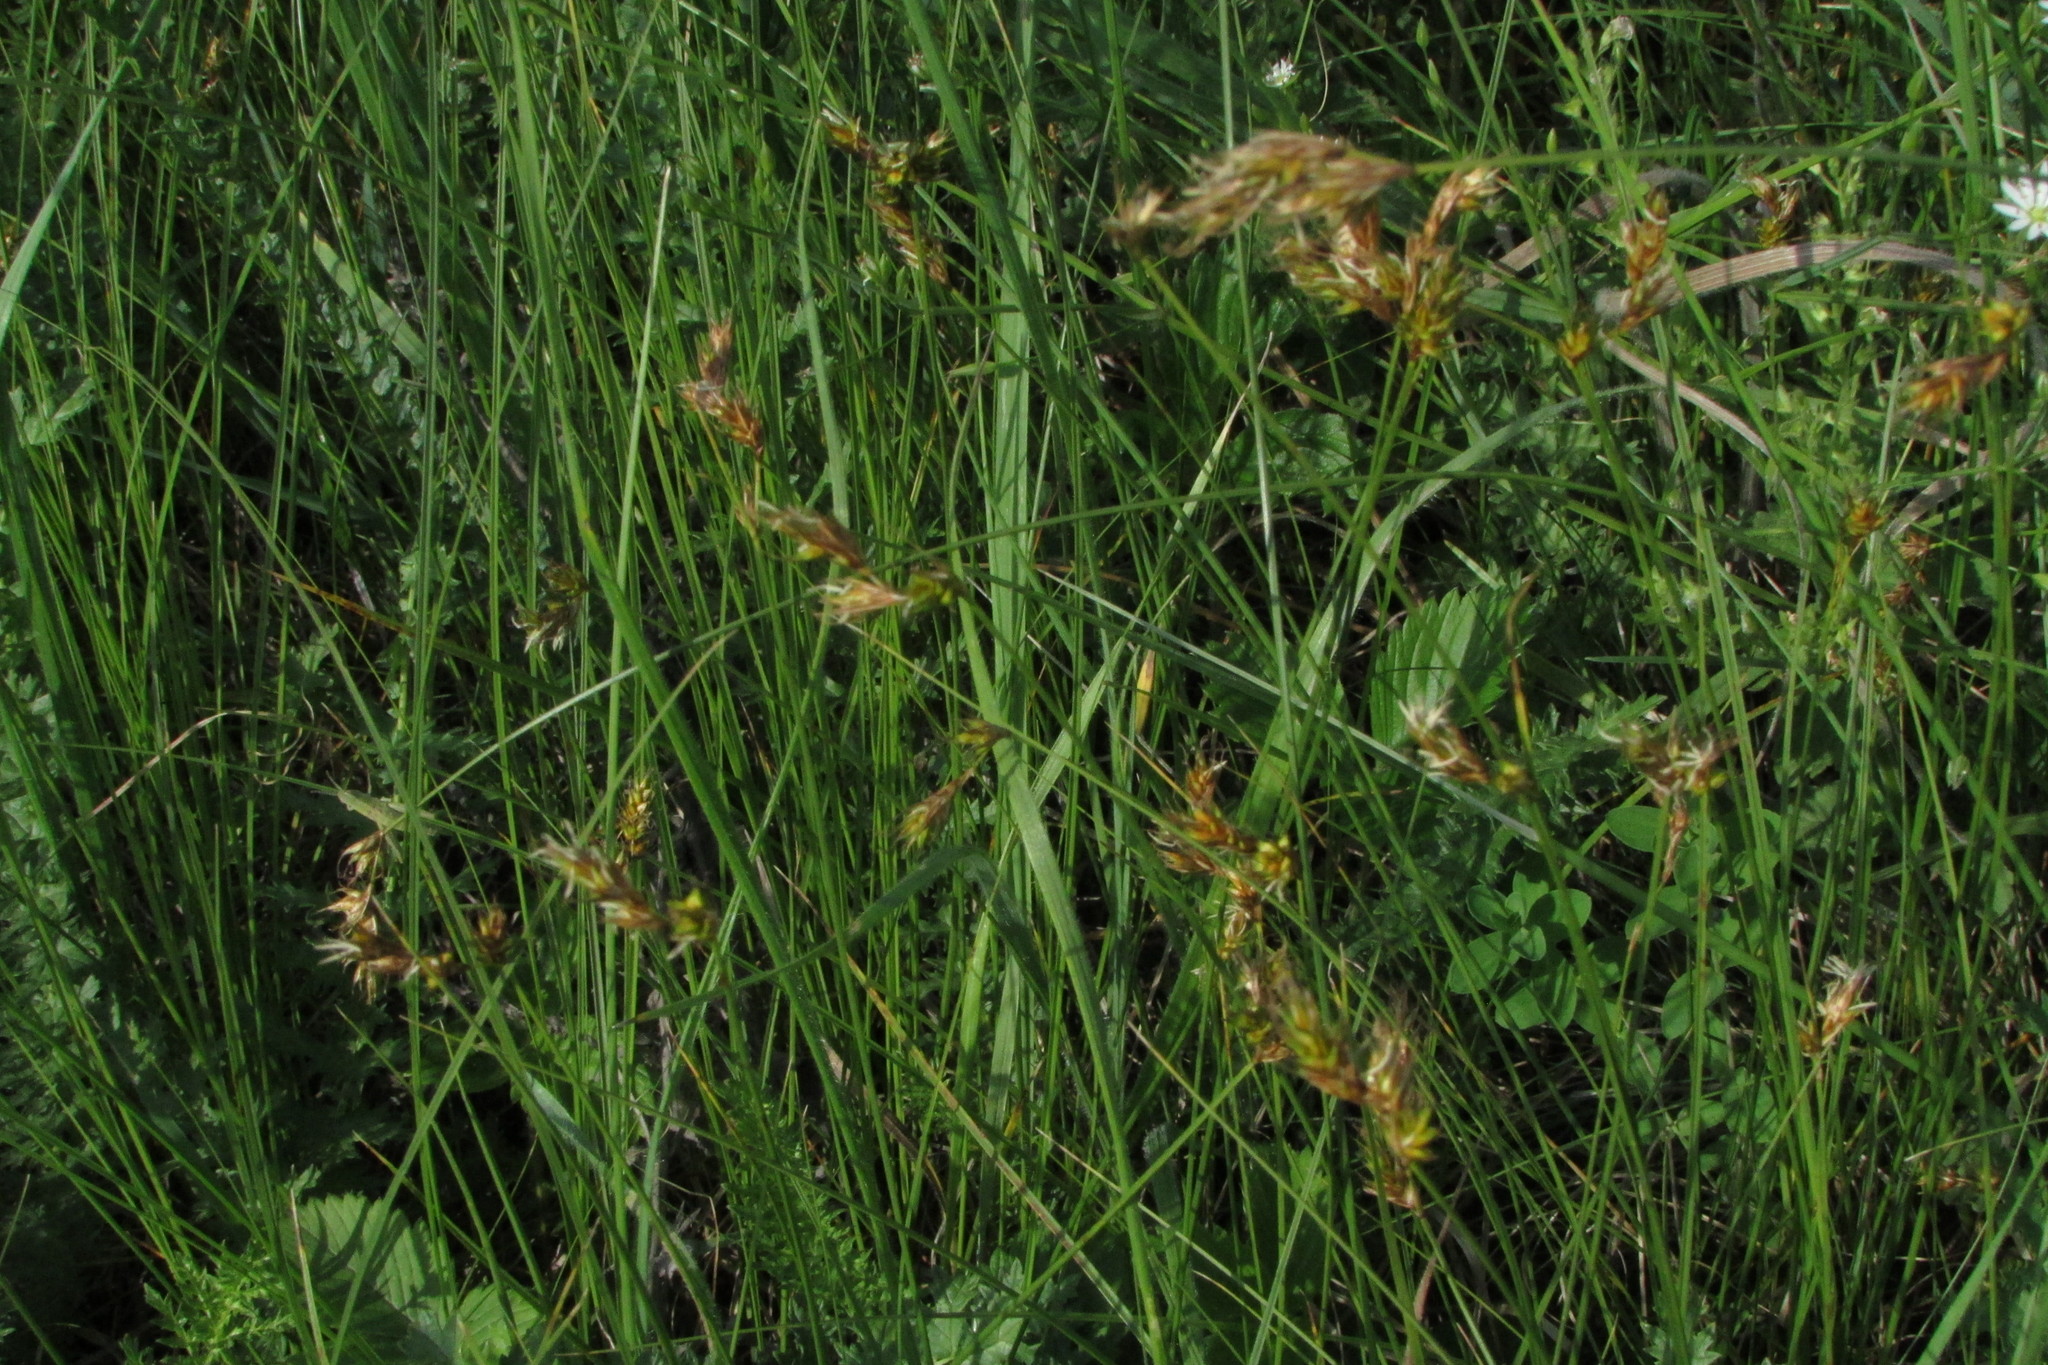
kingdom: Plantae
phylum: Tracheophyta
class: Liliopsida
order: Poales
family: Cyperaceae
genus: Carex
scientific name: Carex praecox
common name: Early sedge
